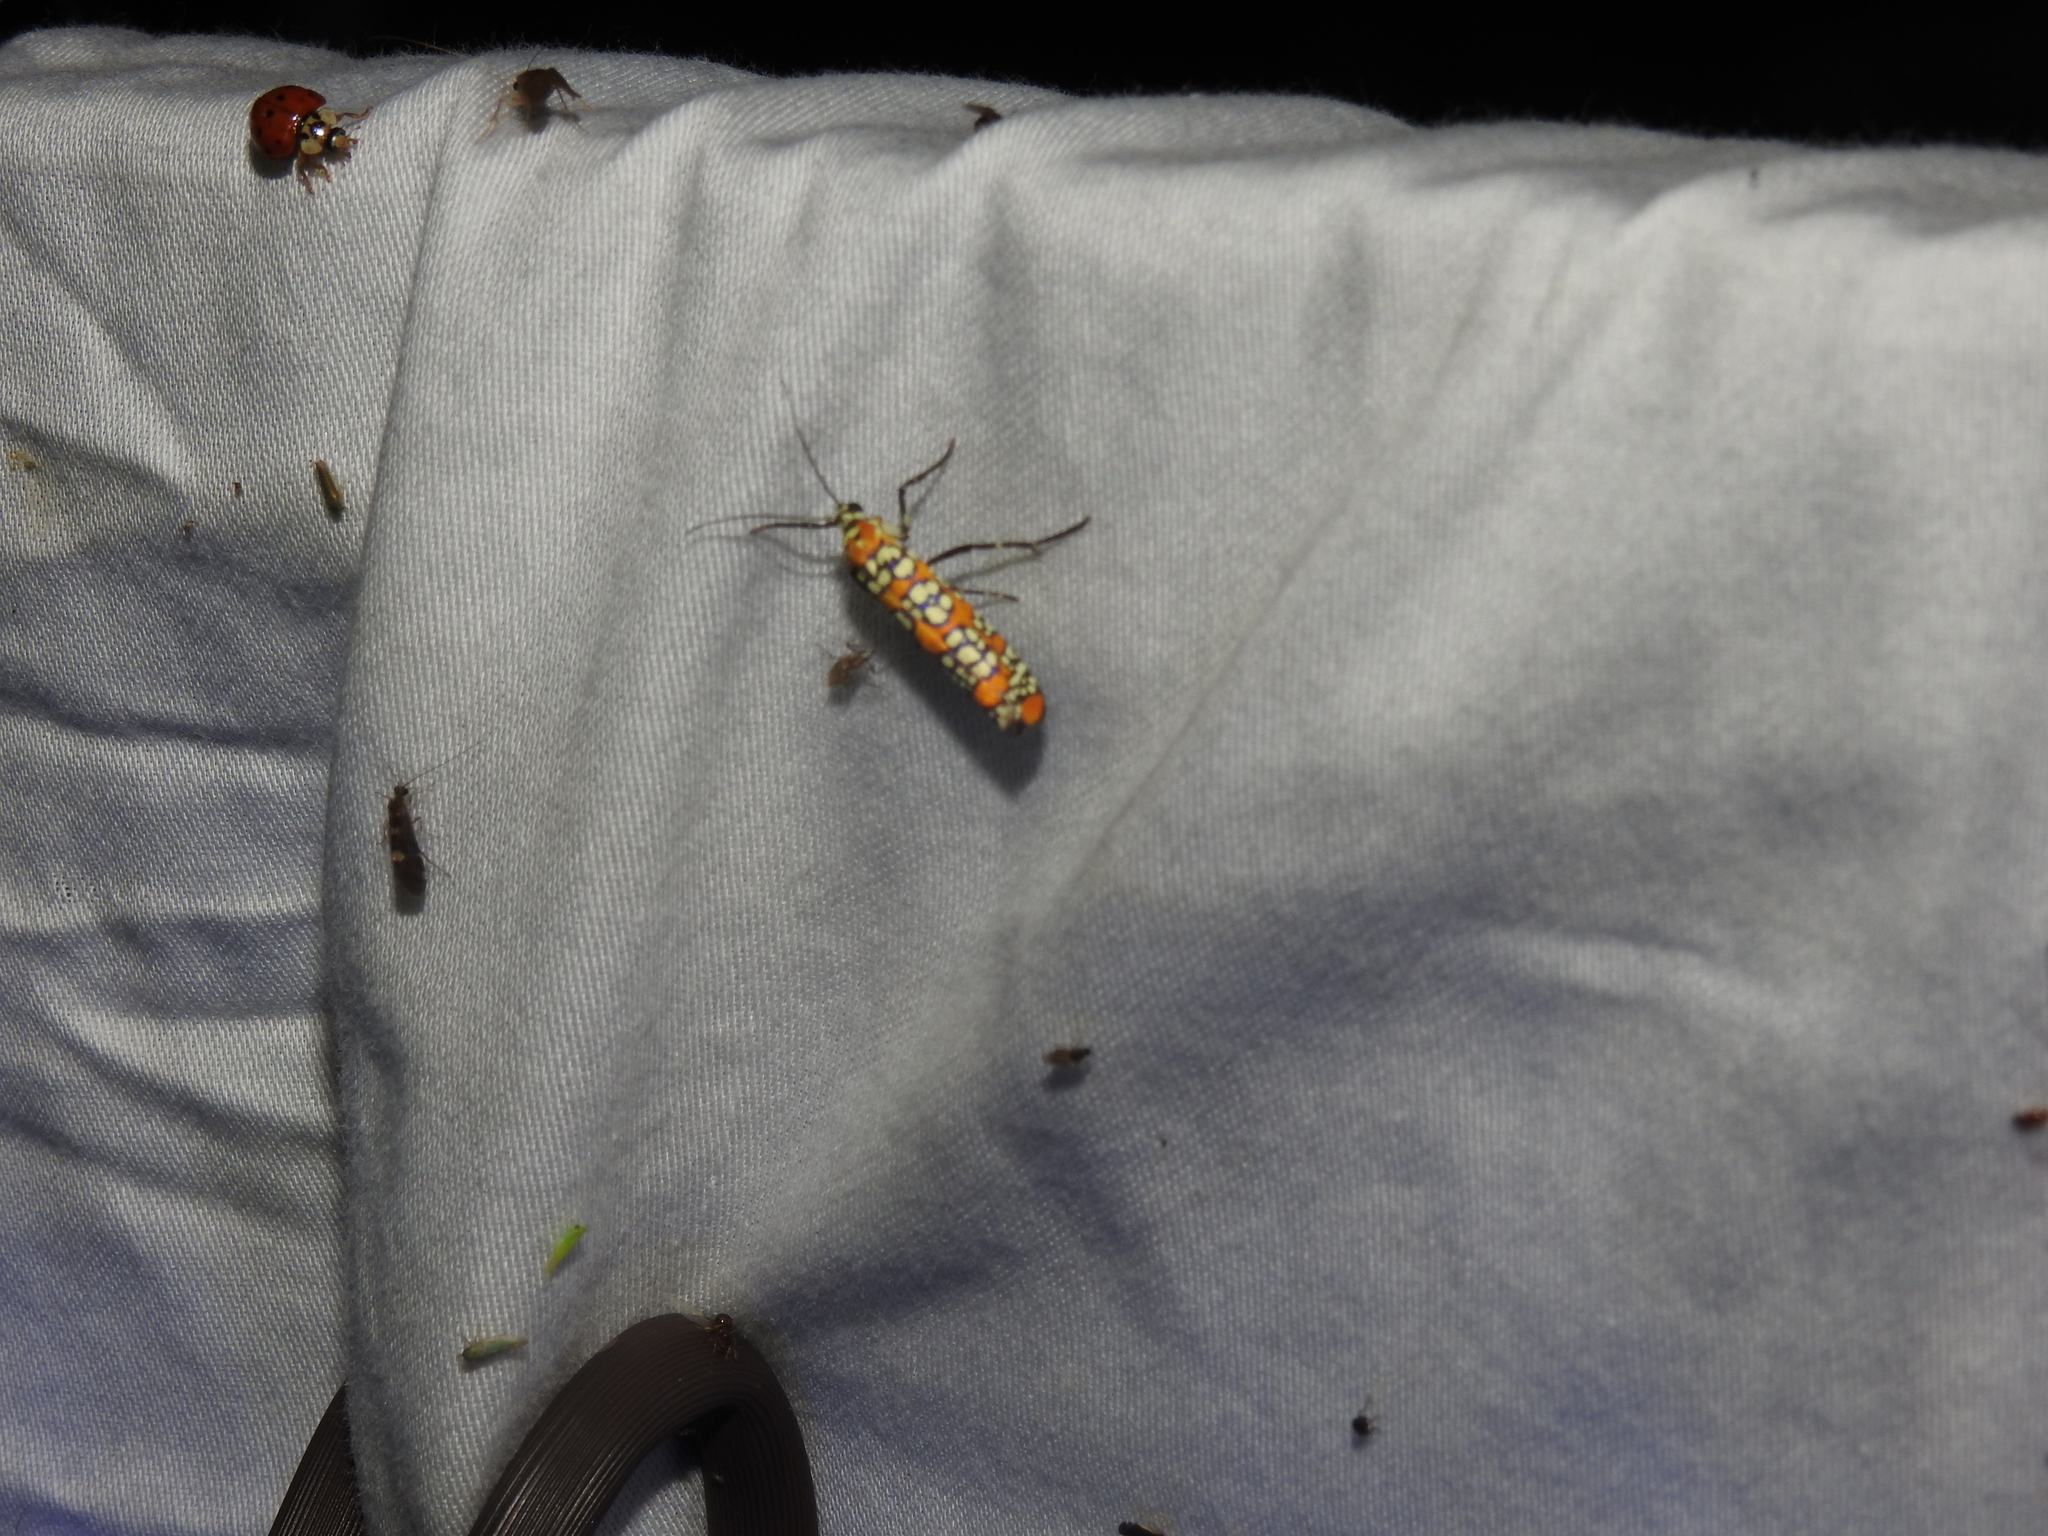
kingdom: Animalia
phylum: Arthropoda
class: Insecta
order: Lepidoptera
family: Attevidae
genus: Atteva
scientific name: Atteva punctella
